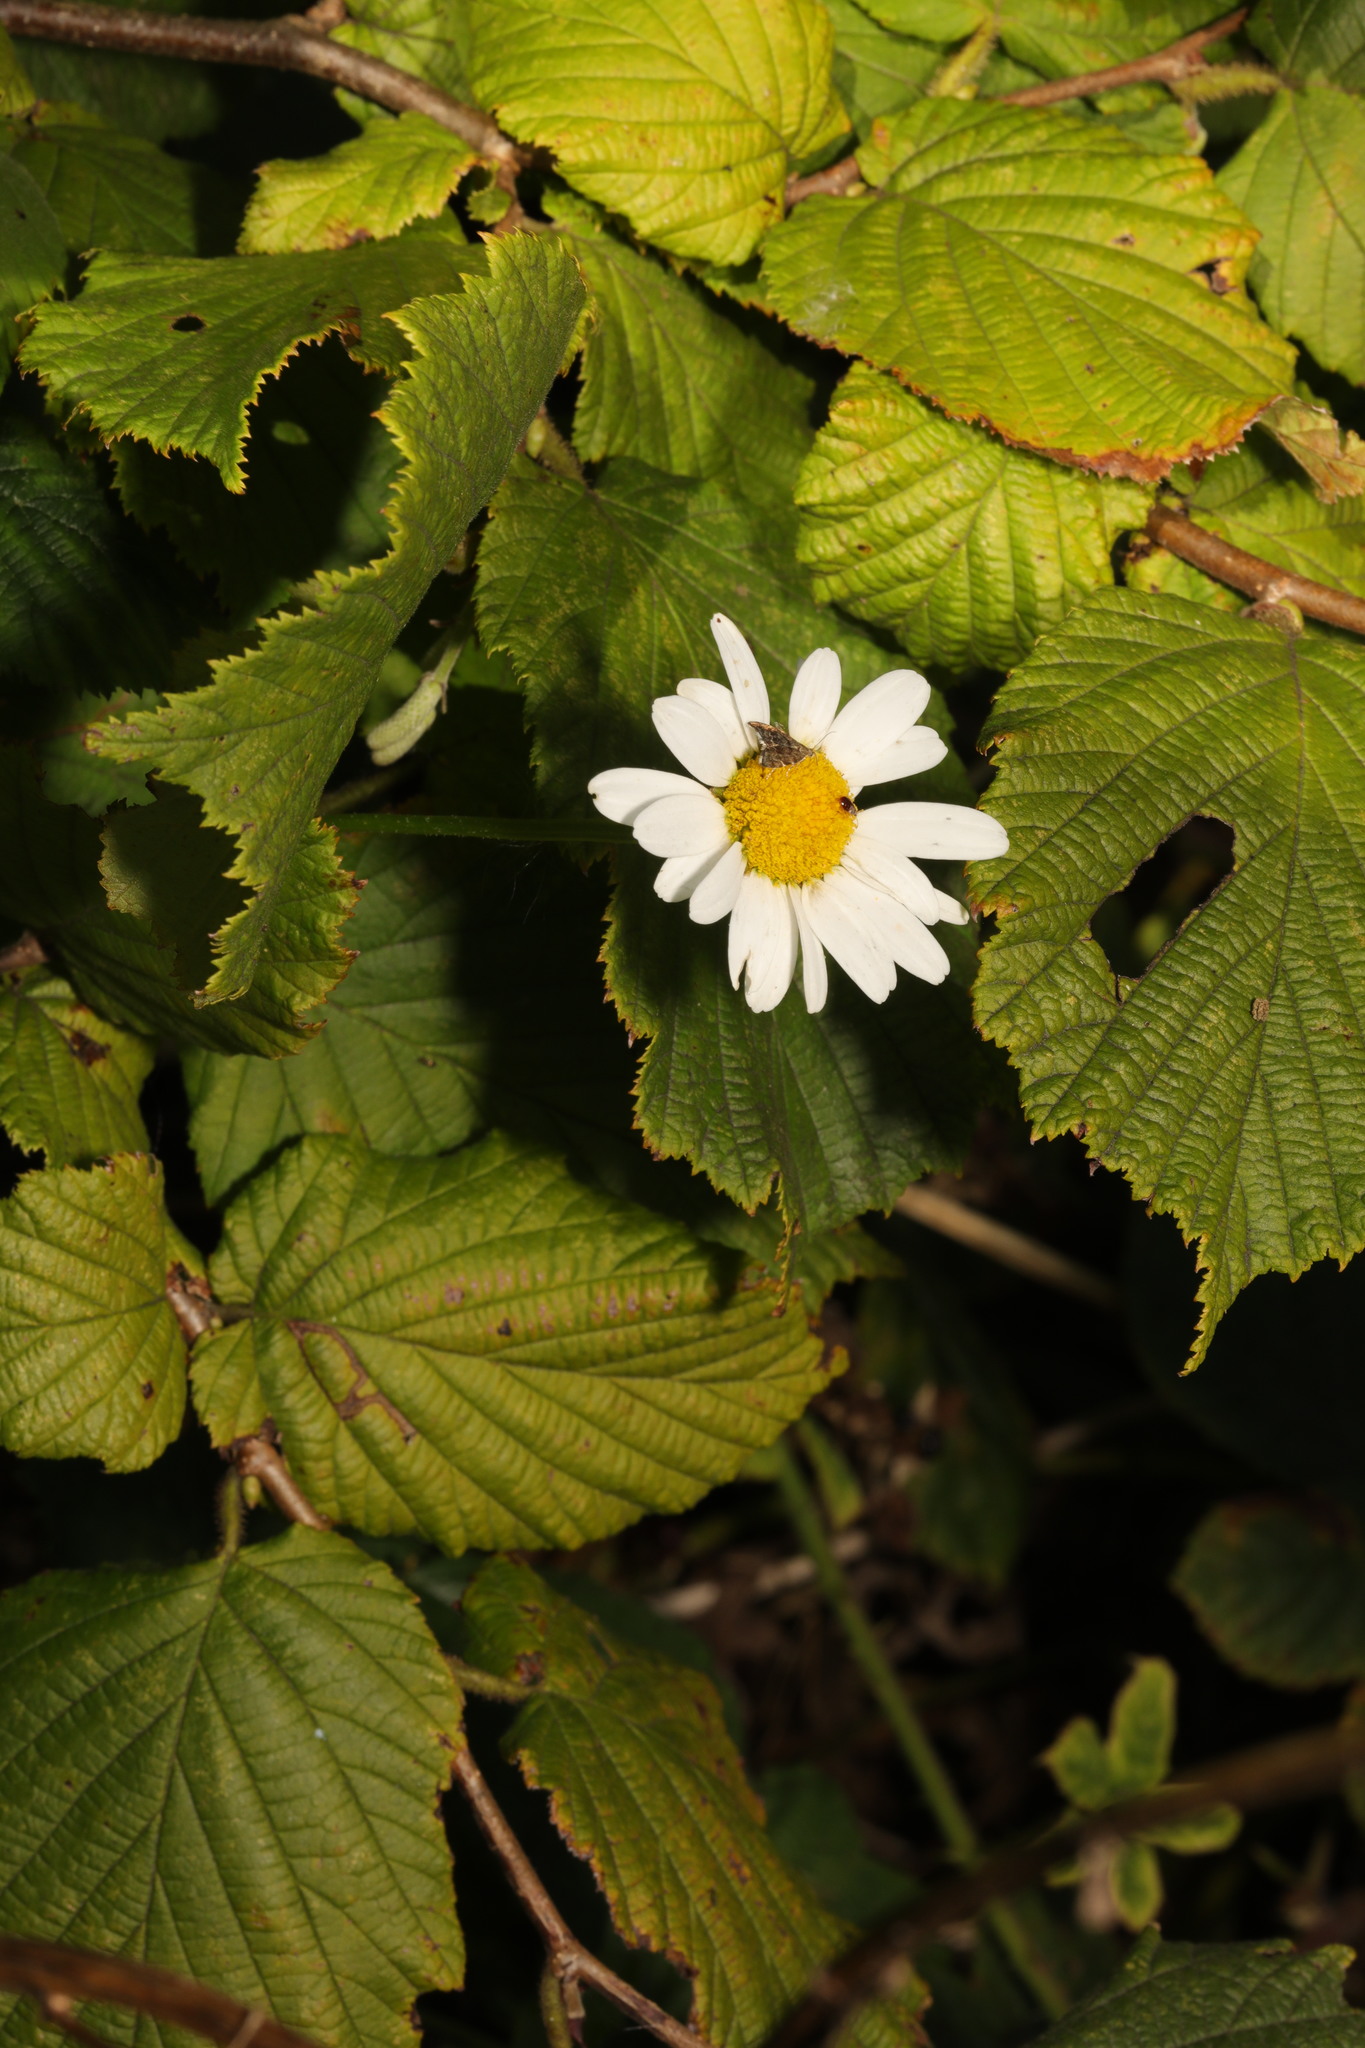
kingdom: Plantae
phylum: Tracheophyta
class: Magnoliopsida
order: Asterales
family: Asteraceae
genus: Leucanthemum
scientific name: Leucanthemum vulgare
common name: Oxeye daisy
